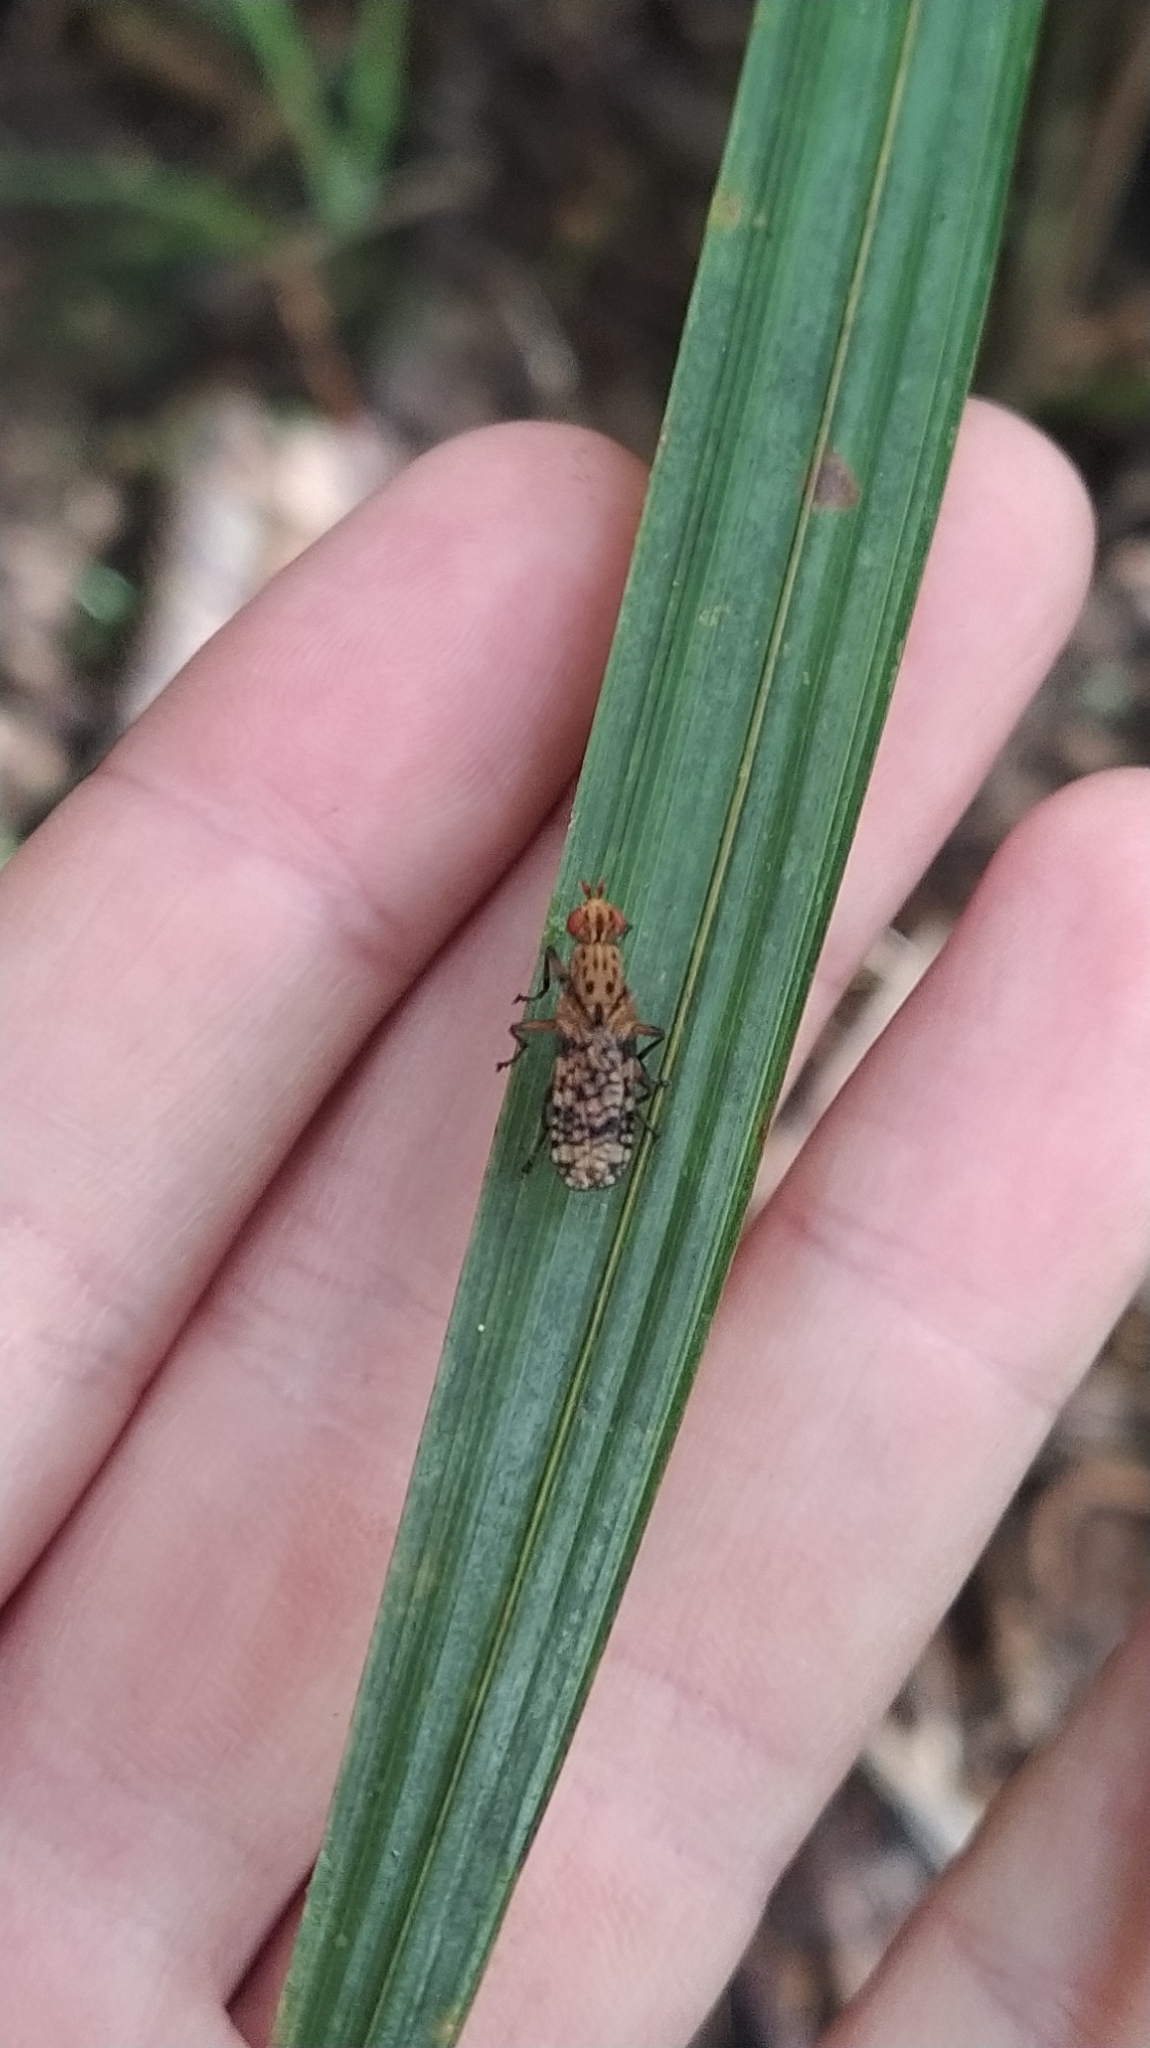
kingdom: Animalia
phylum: Arthropoda
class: Insecta
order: Diptera
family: Sciomyzidae
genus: Eulimnia
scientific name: Eulimnia milleri
